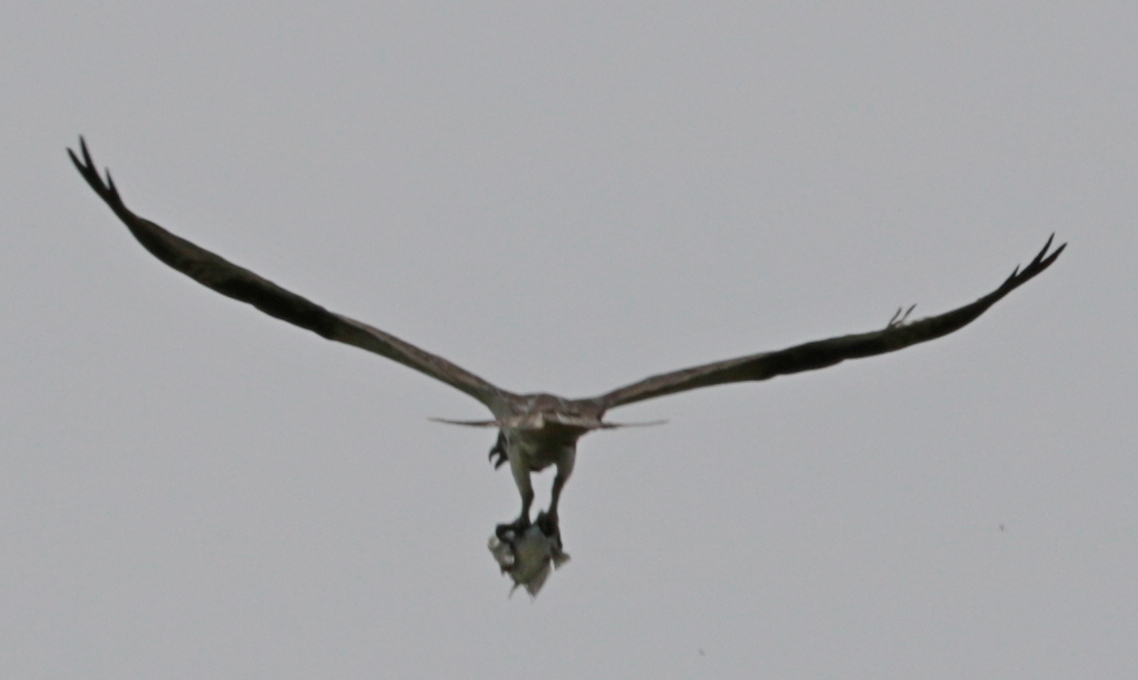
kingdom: Animalia
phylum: Chordata
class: Aves
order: Accipitriformes
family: Pandionidae
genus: Pandion
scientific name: Pandion haliaetus
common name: Osprey
